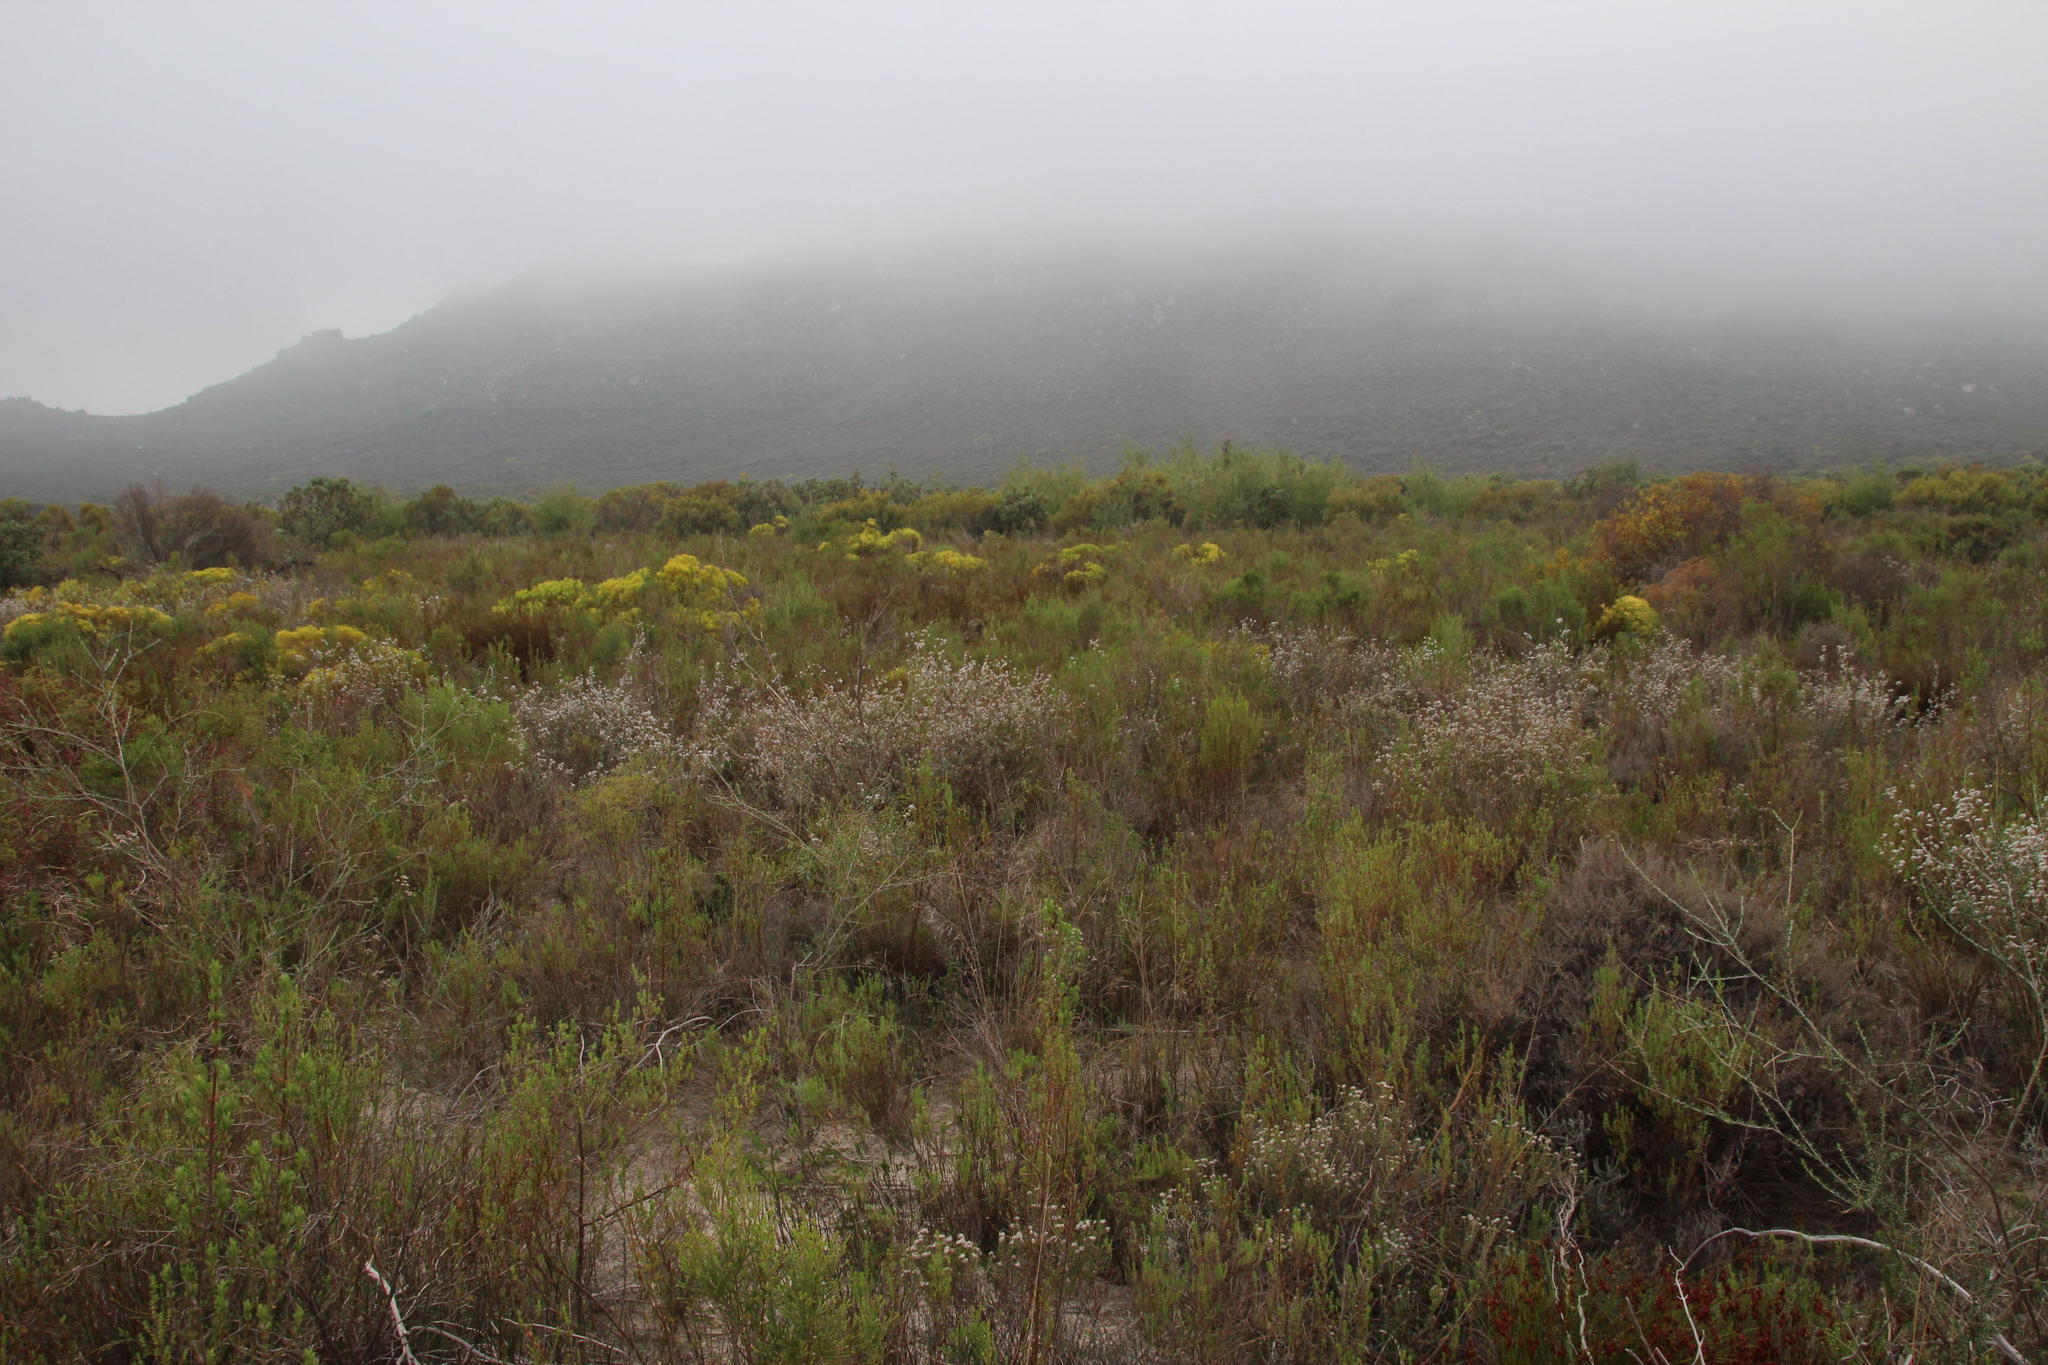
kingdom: Plantae
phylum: Tracheophyta
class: Magnoliopsida
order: Asterales
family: Asteraceae
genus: Eriocephalus
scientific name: Eriocephalus africanus
